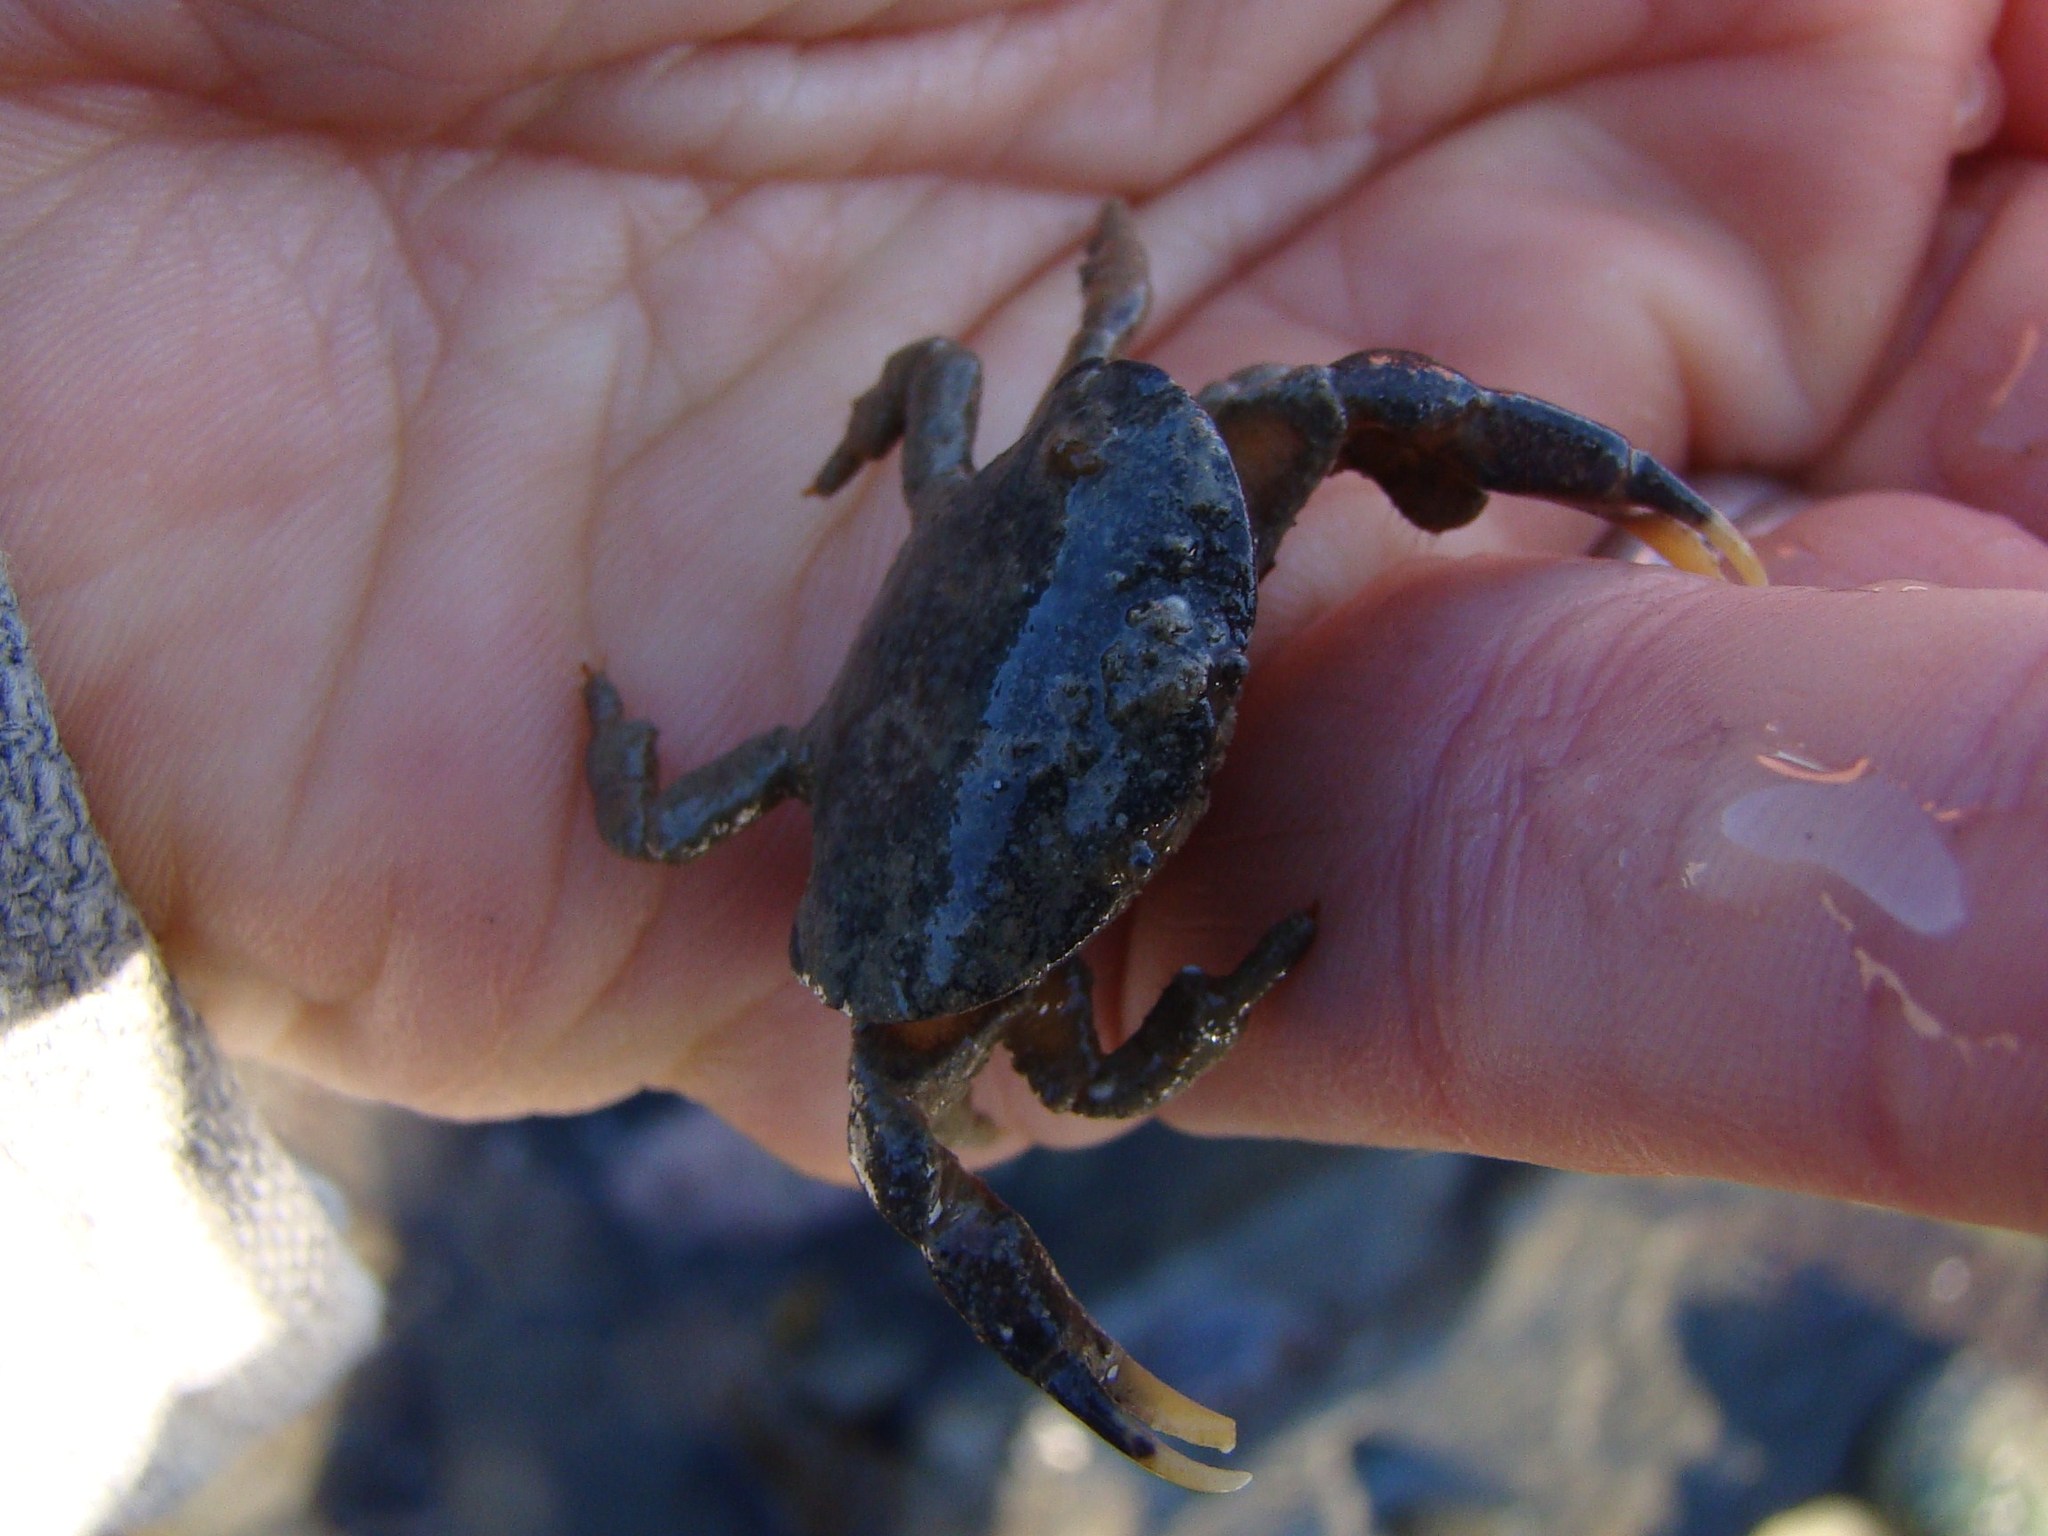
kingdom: Animalia
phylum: Arthropoda
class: Malacostraca
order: Decapoda
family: Heteroziidae
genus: Heterozius
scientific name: Heterozius rotundifrons
